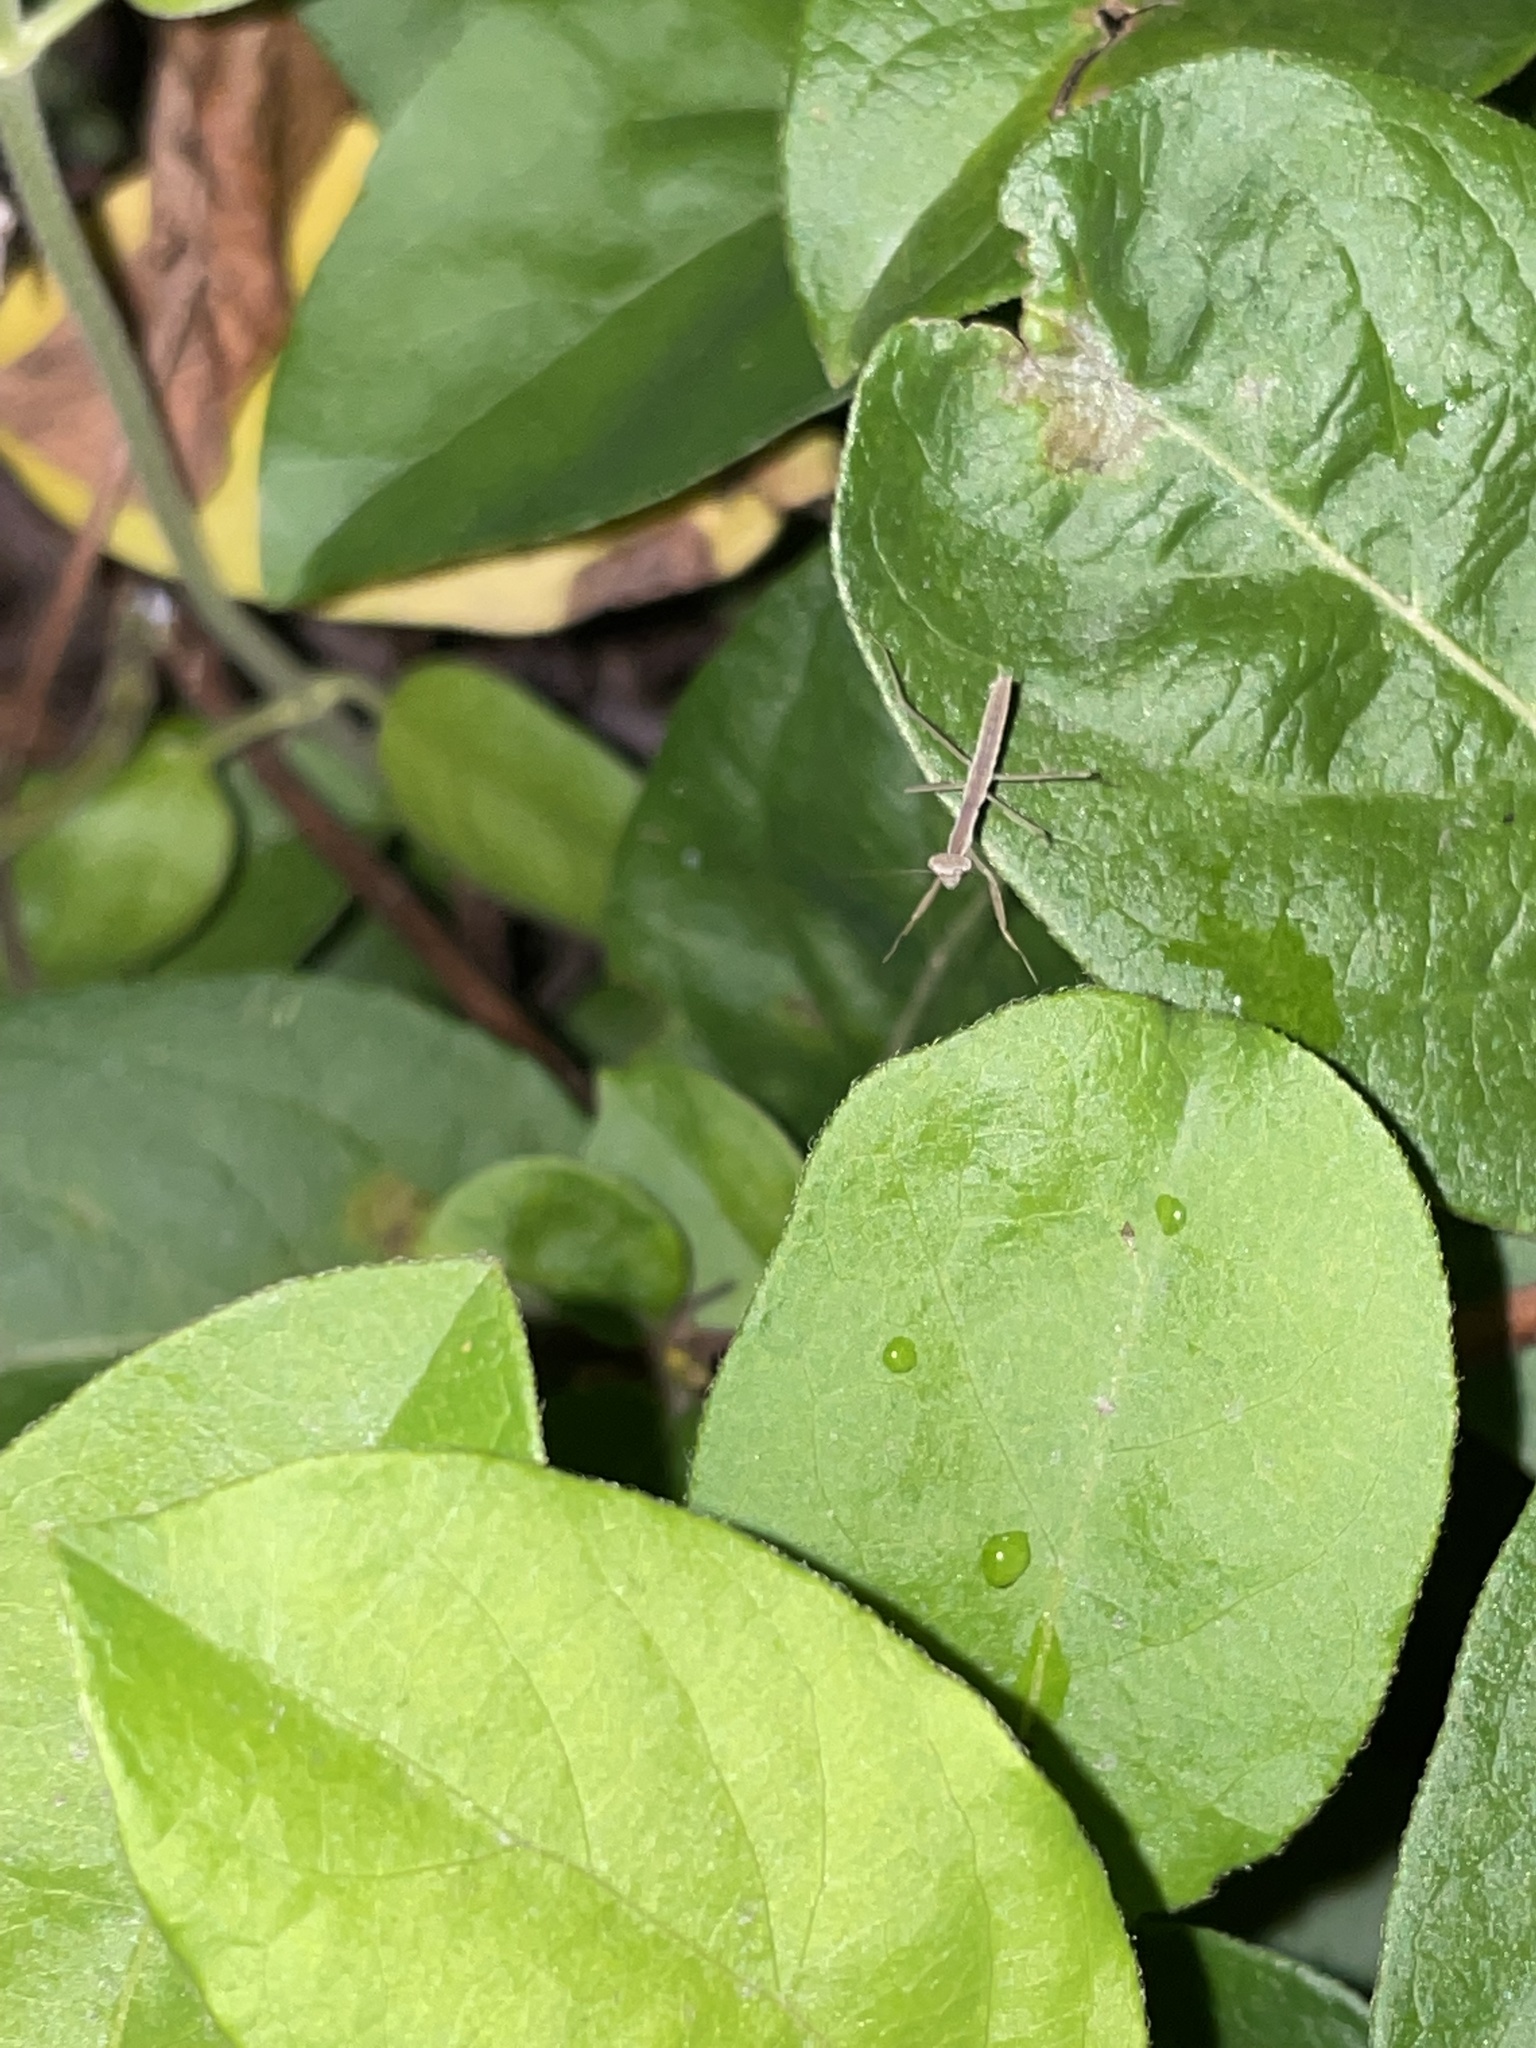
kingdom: Animalia
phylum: Arthropoda
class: Insecta
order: Mantodea
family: Mantidae
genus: Tenodera
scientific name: Tenodera sinensis
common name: Chinese mantis
